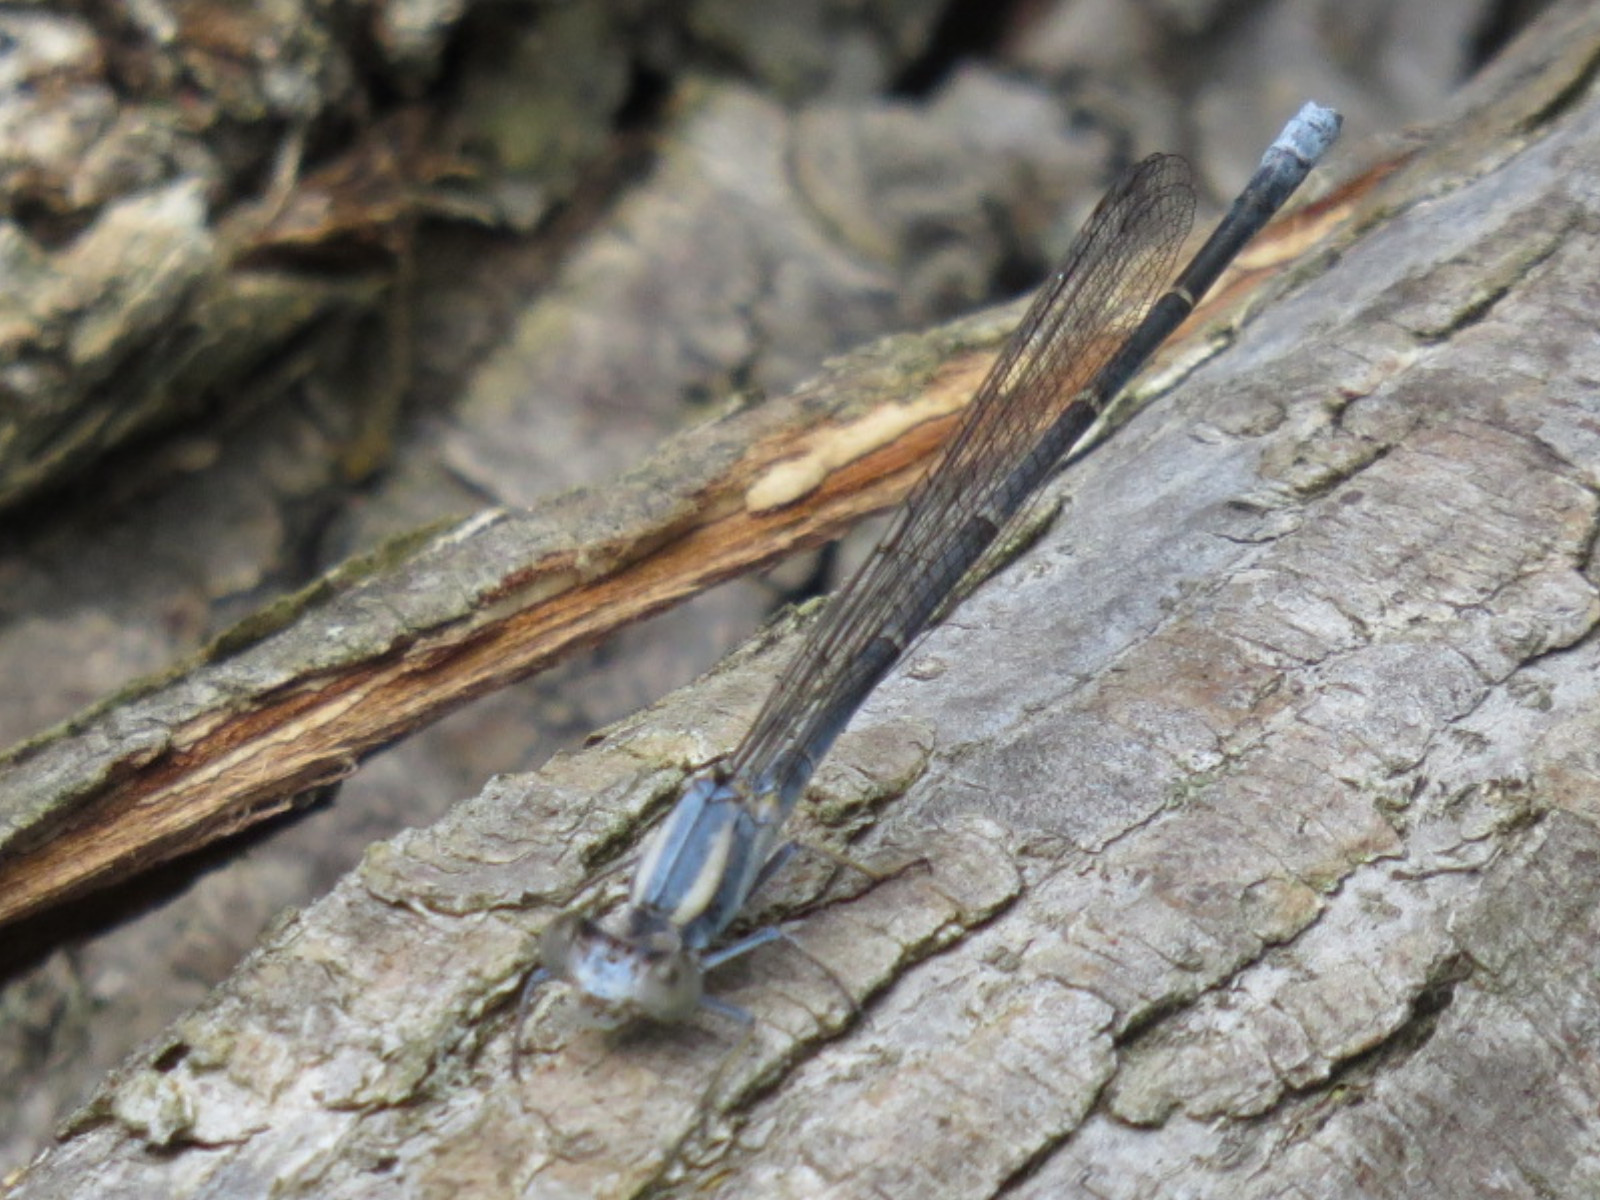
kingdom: Animalia
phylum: Arthropoda
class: Insecta
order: Odonata
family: Coenagrionidae
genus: Argia
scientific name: Argia moesta
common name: Powdered dancer
